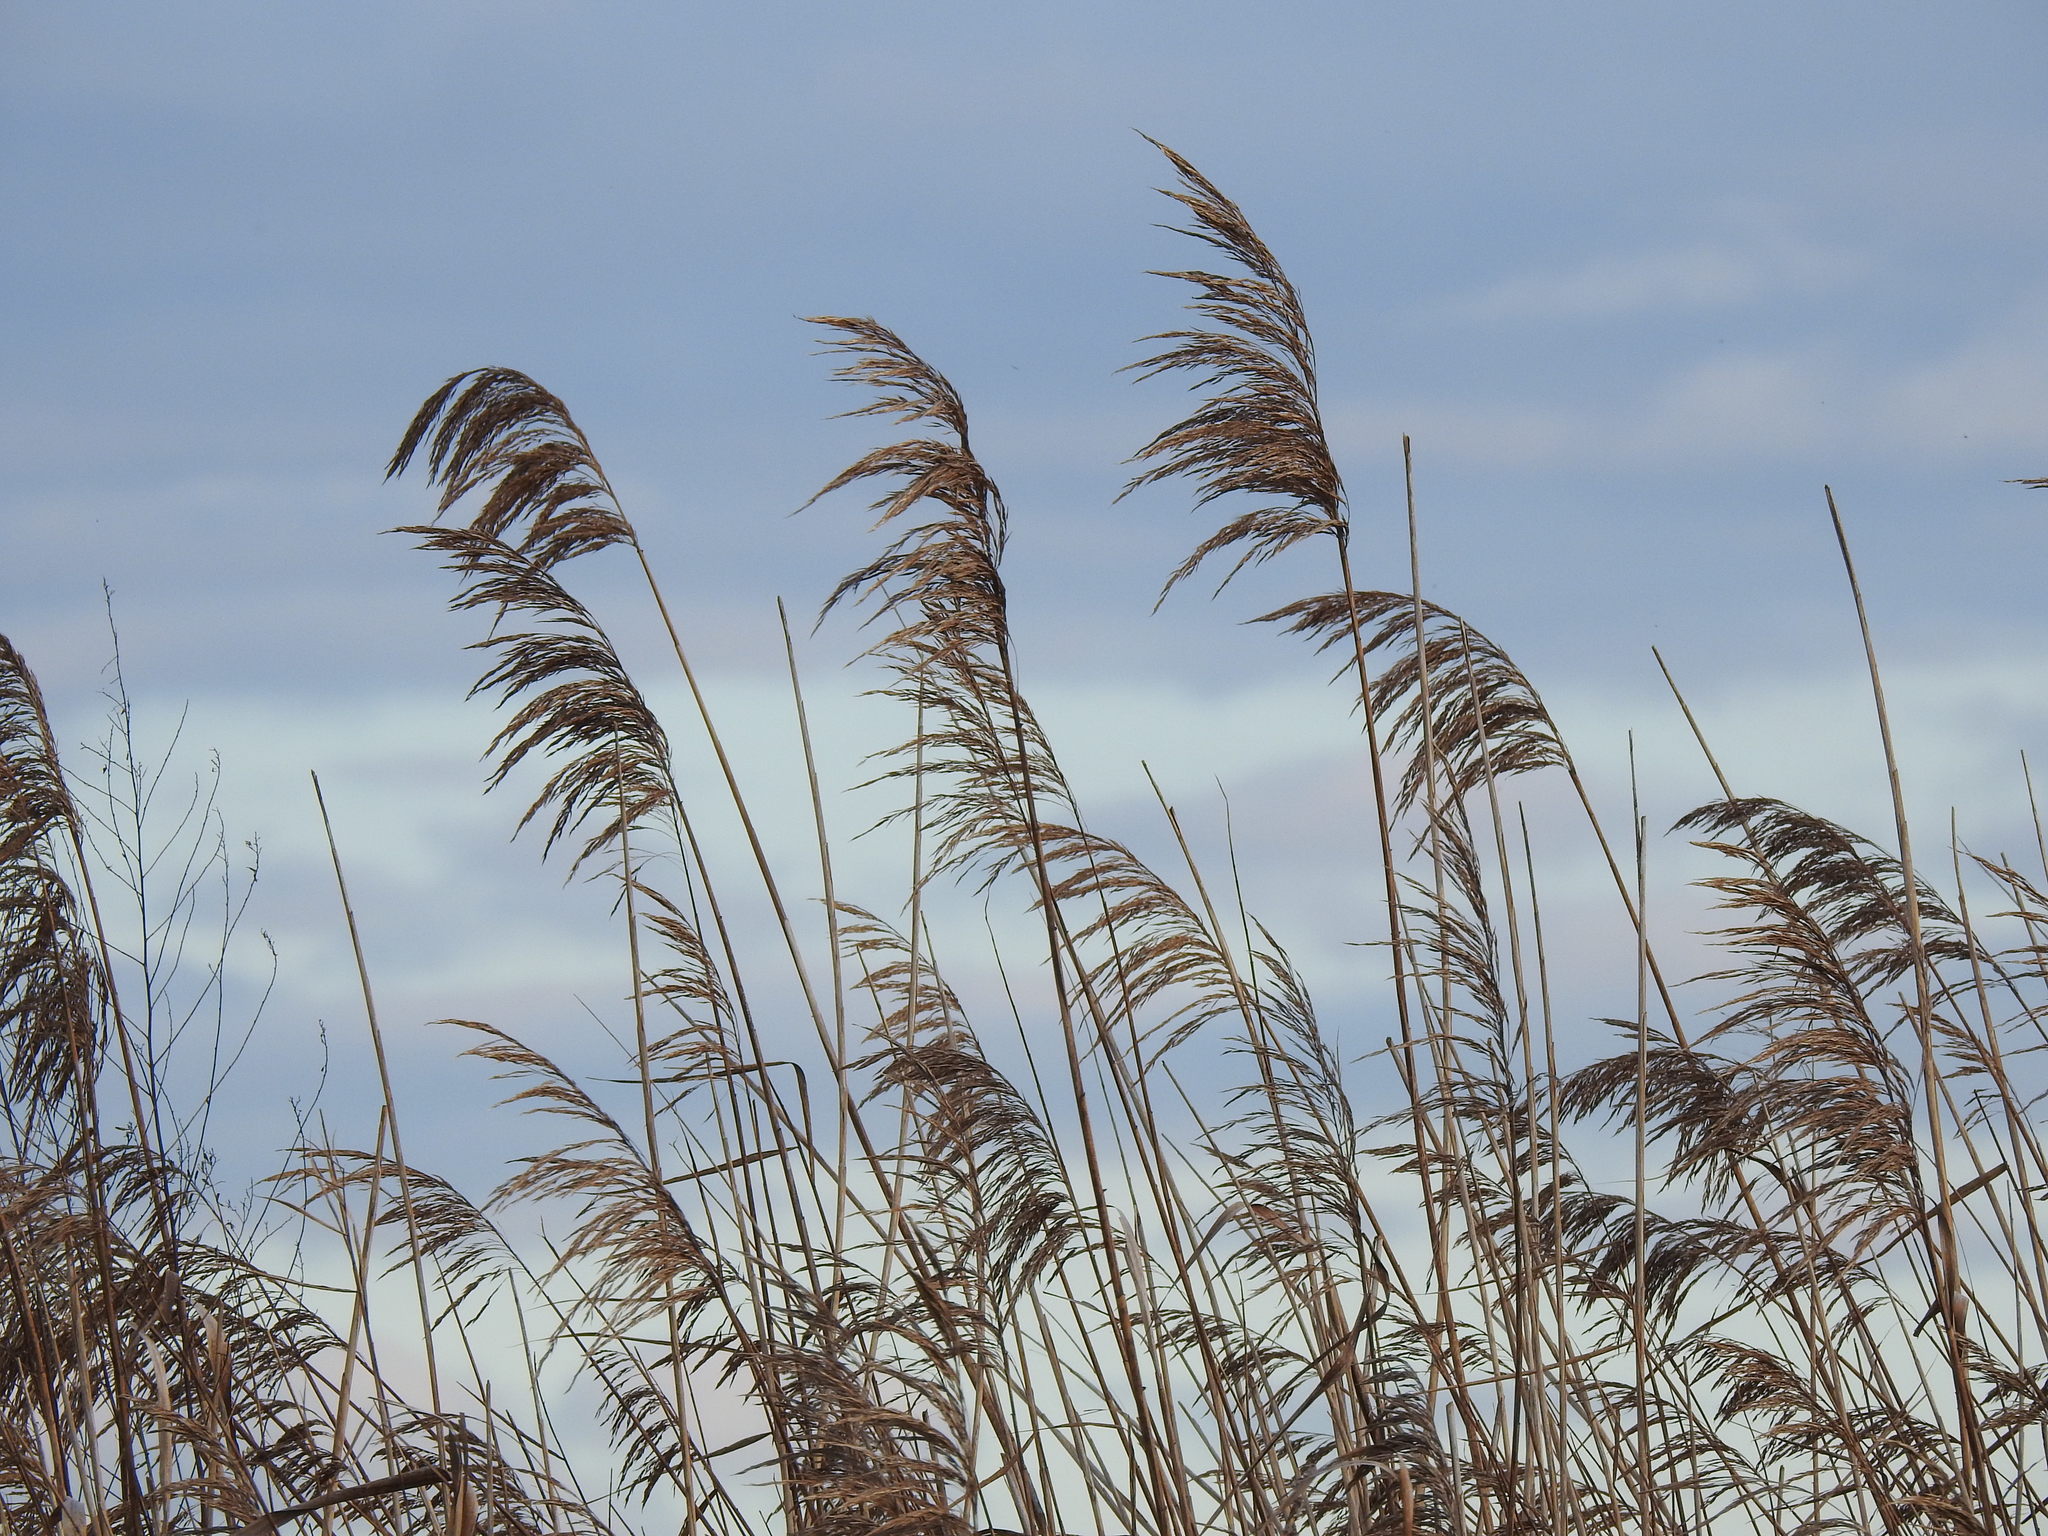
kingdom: Plantae
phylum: Tracheophyta
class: Liliopsida
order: Poales
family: Poaceae
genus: Phragmites
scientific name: Phragmites australis
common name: Common reed
